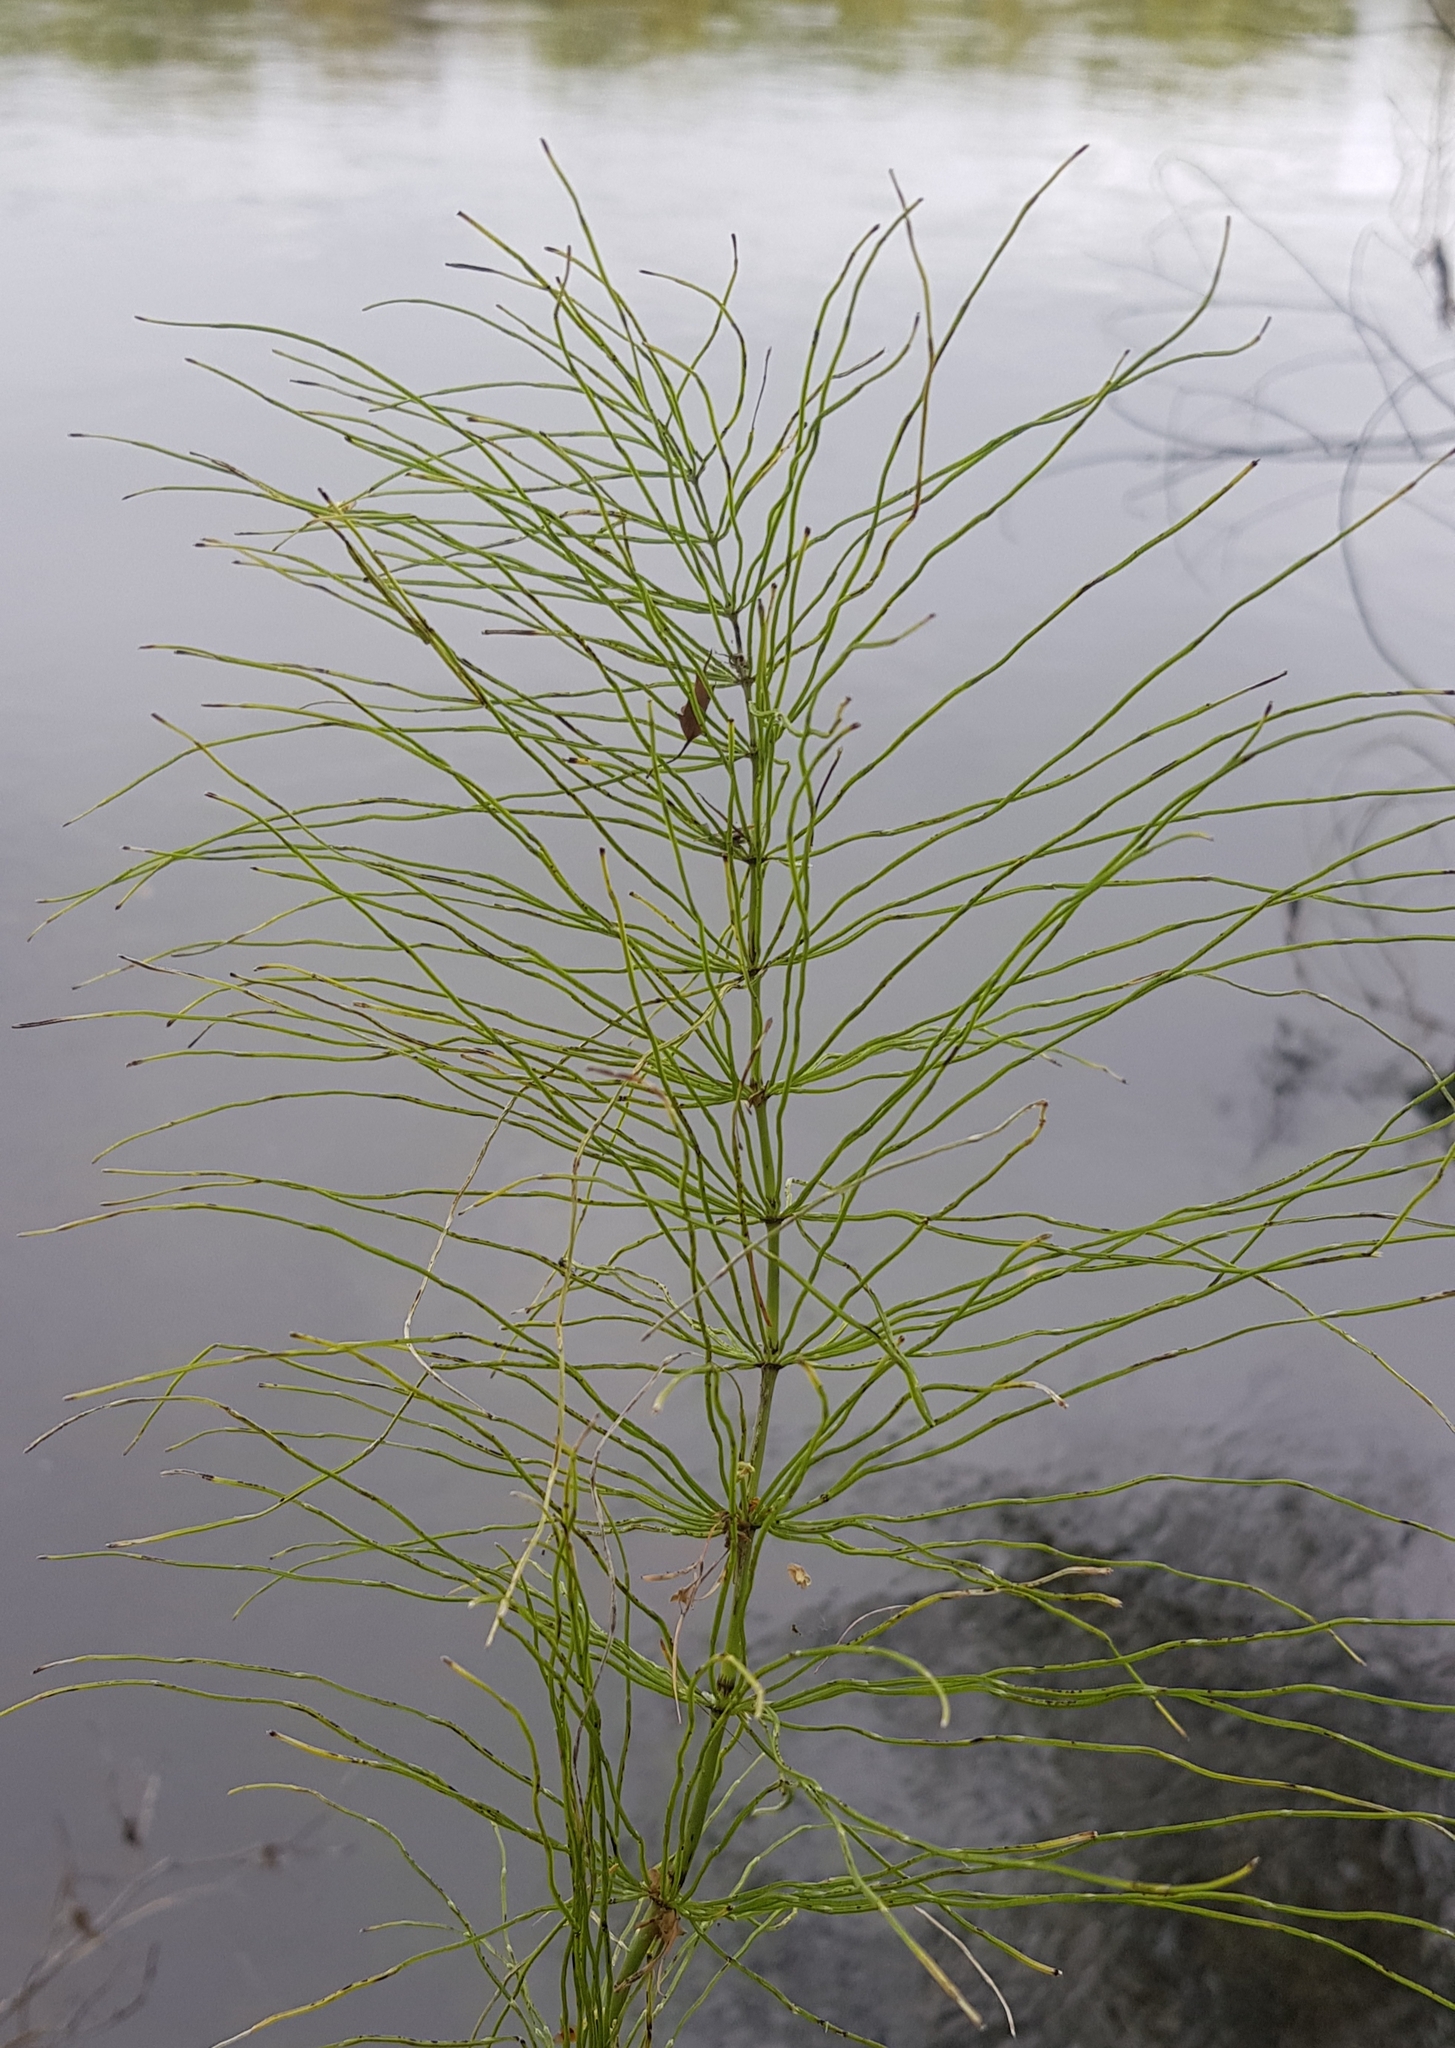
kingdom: Plantae
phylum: Tracheophyta
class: Polypodiopsida
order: Equisetales
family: Equisetaceae
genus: Equisetum
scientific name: Equisetum pratense
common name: Meadow horsetail
